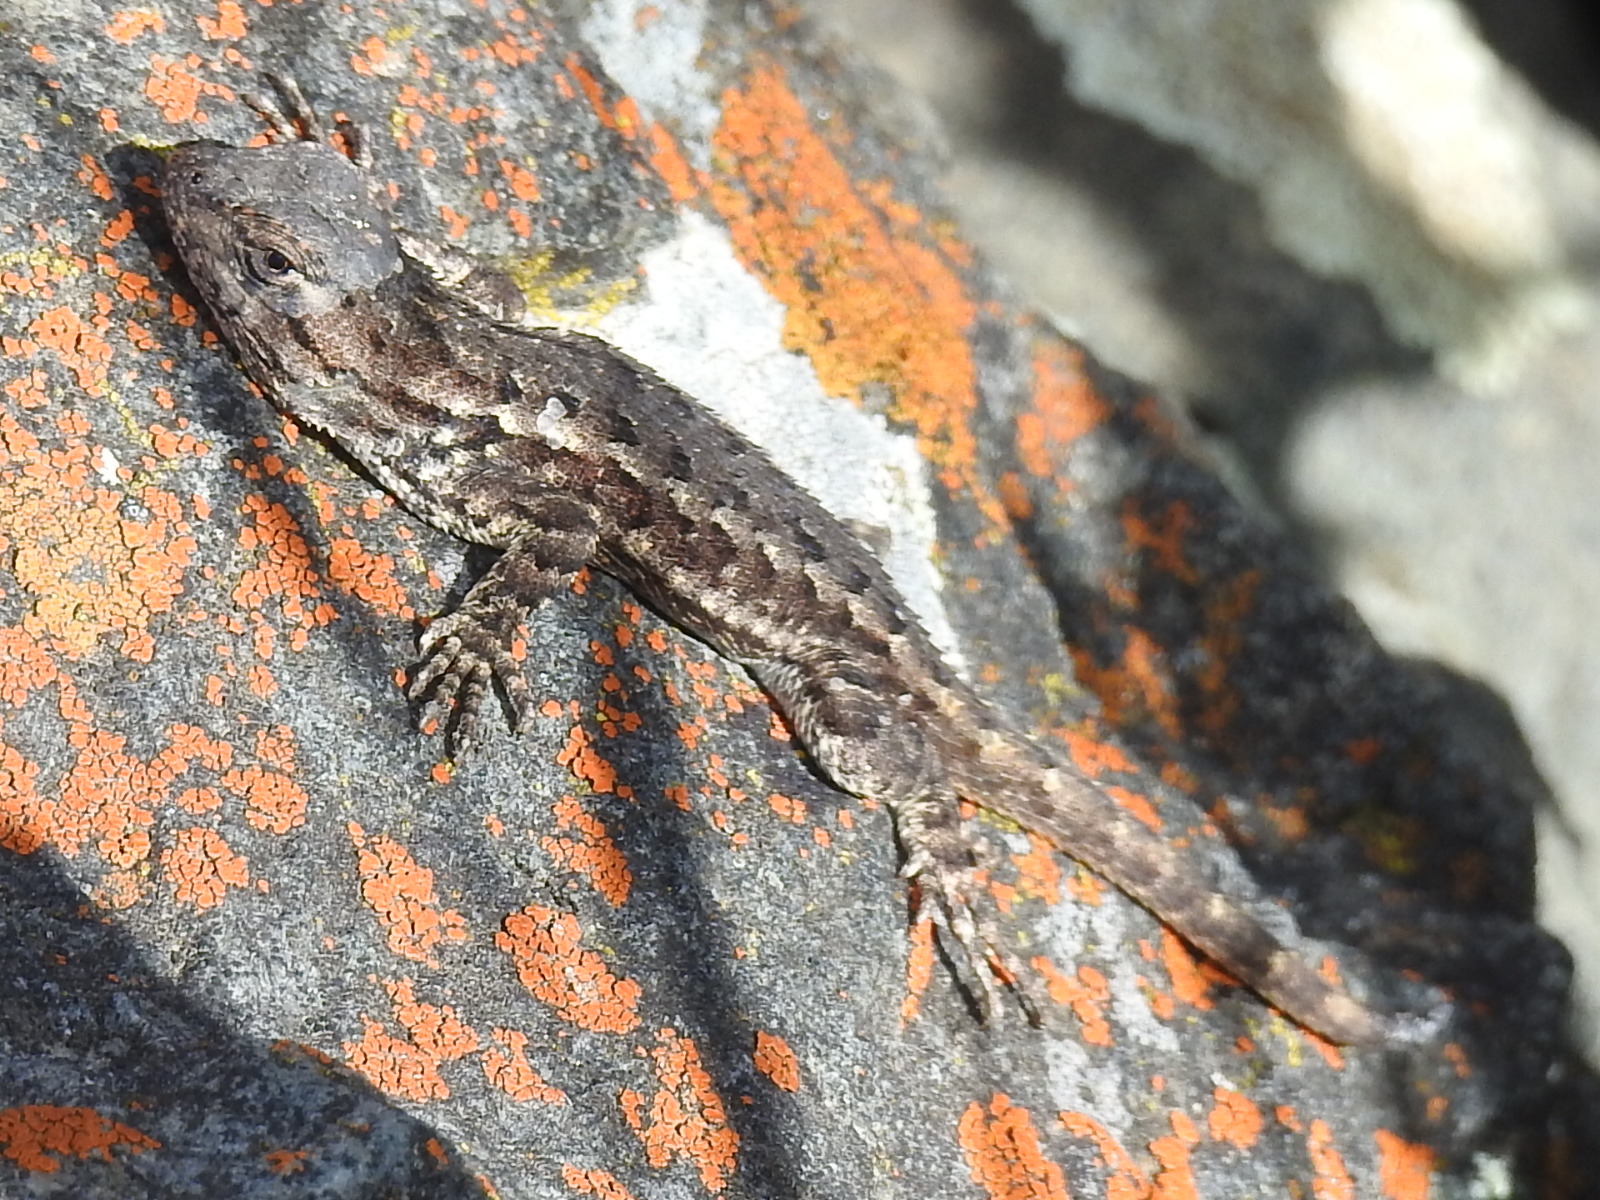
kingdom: Animalia
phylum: Chordata
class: Squamata
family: Phrynosomatidae
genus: Sceloporus
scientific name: Sceloporus occidentalis
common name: Western fence lizard
